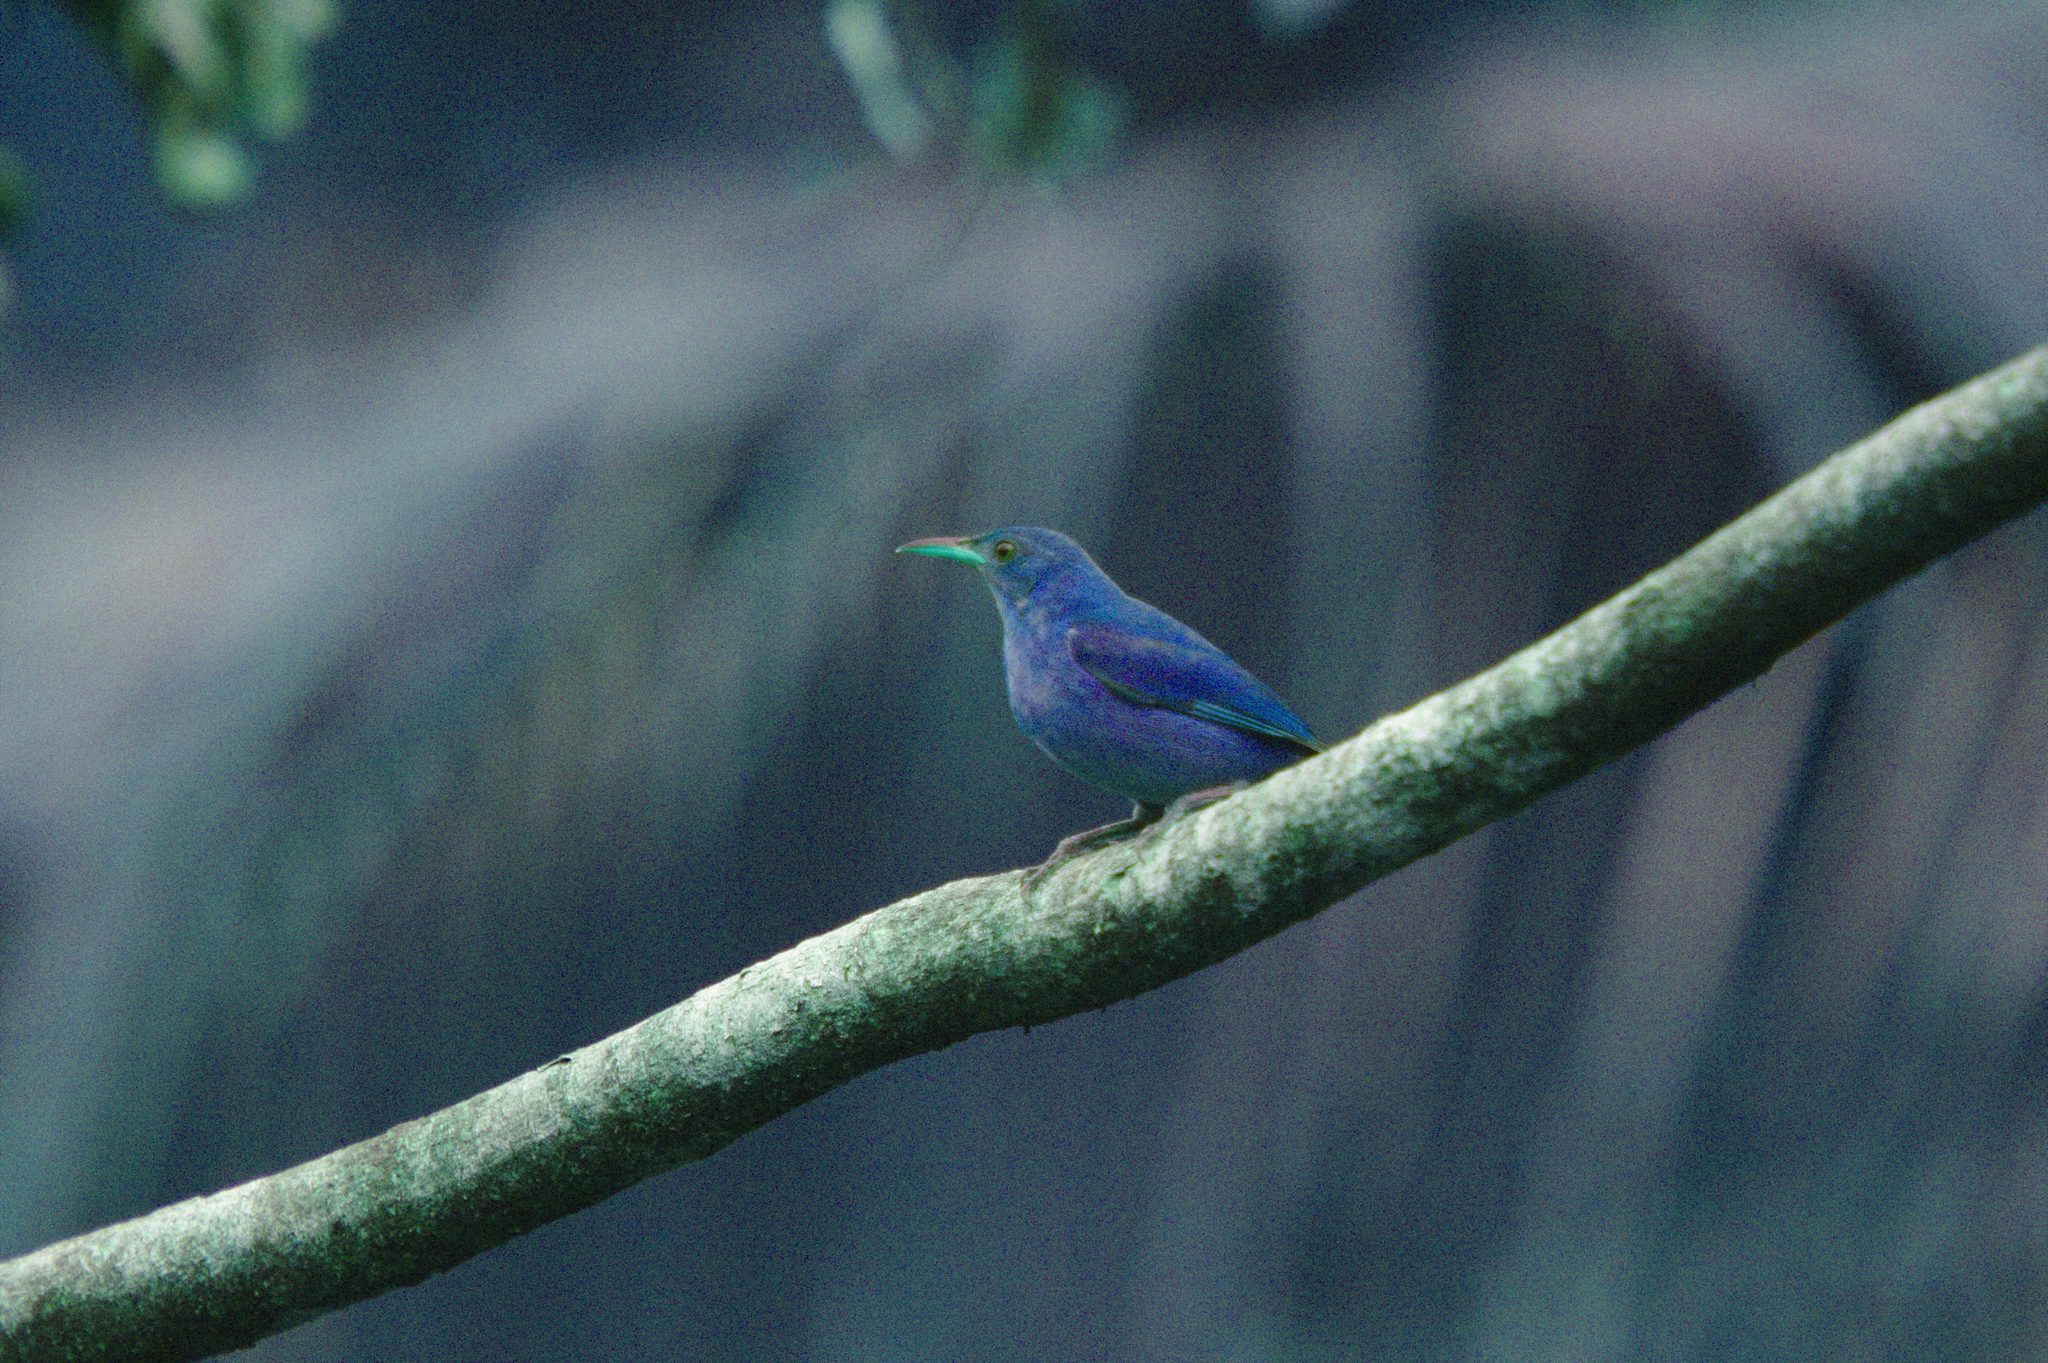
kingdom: Animalia
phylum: Chordata
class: Aves
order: Passeriformes
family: Thraupidae
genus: Chlorophanes
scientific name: Chlorophanes spiza
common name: Green honeycreeper
